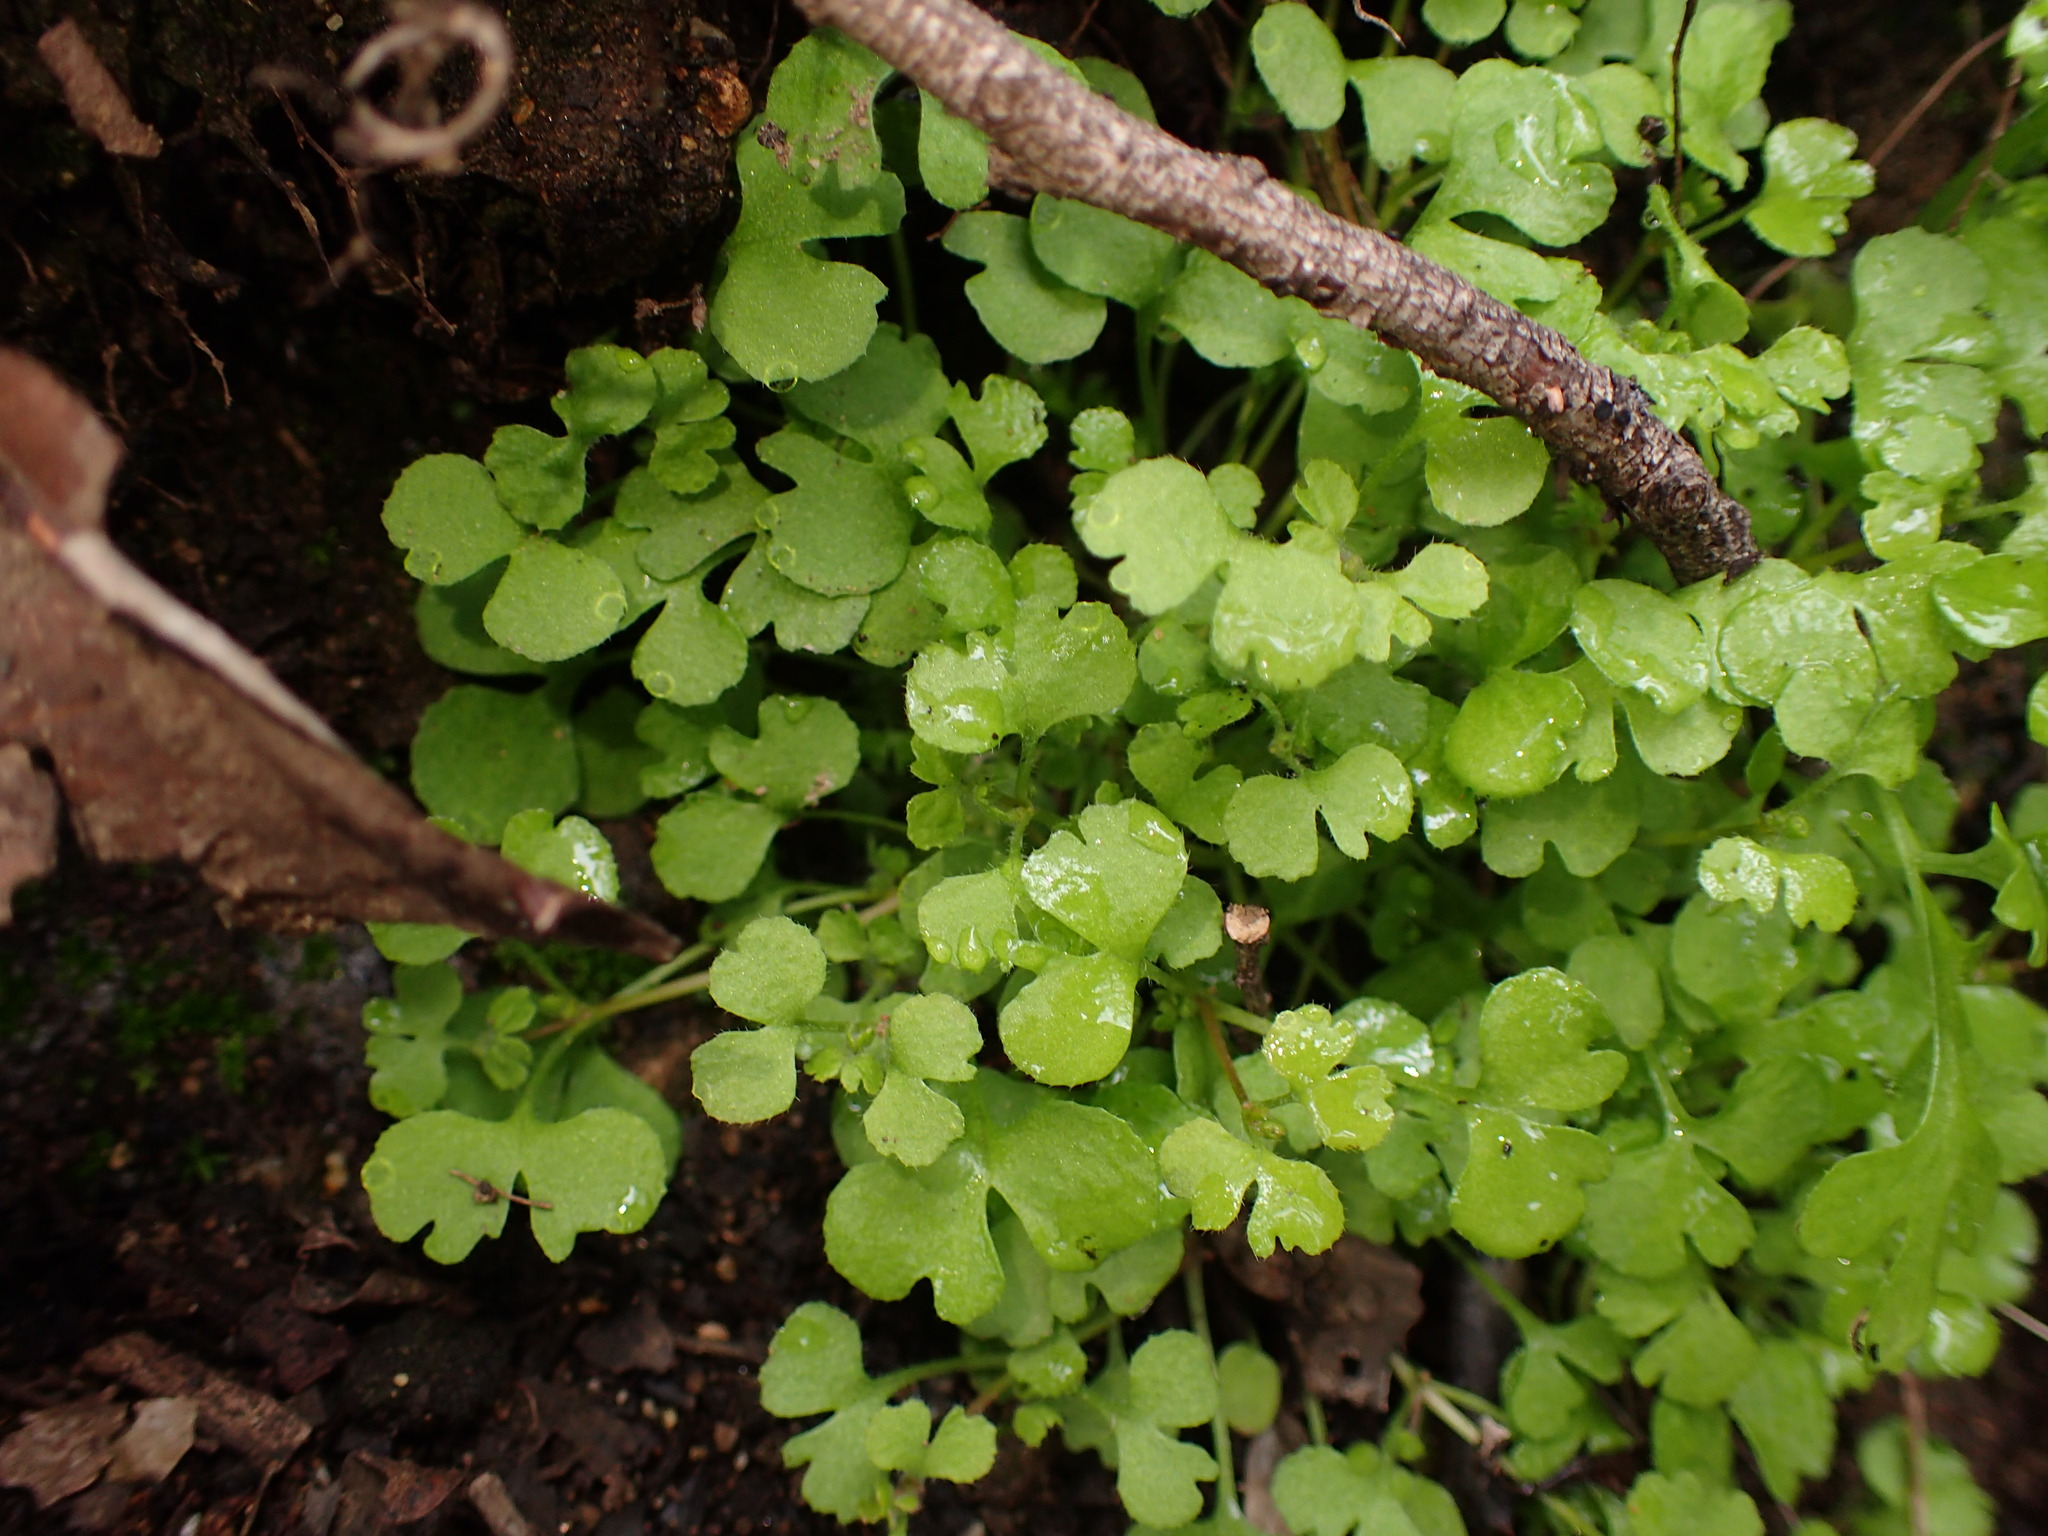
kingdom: Plantae
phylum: Tracheophyta
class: Magnoliopsida
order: Caryophyllales
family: Polygonaceae
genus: Pterostegia
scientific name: Pterostegia drymarioides
